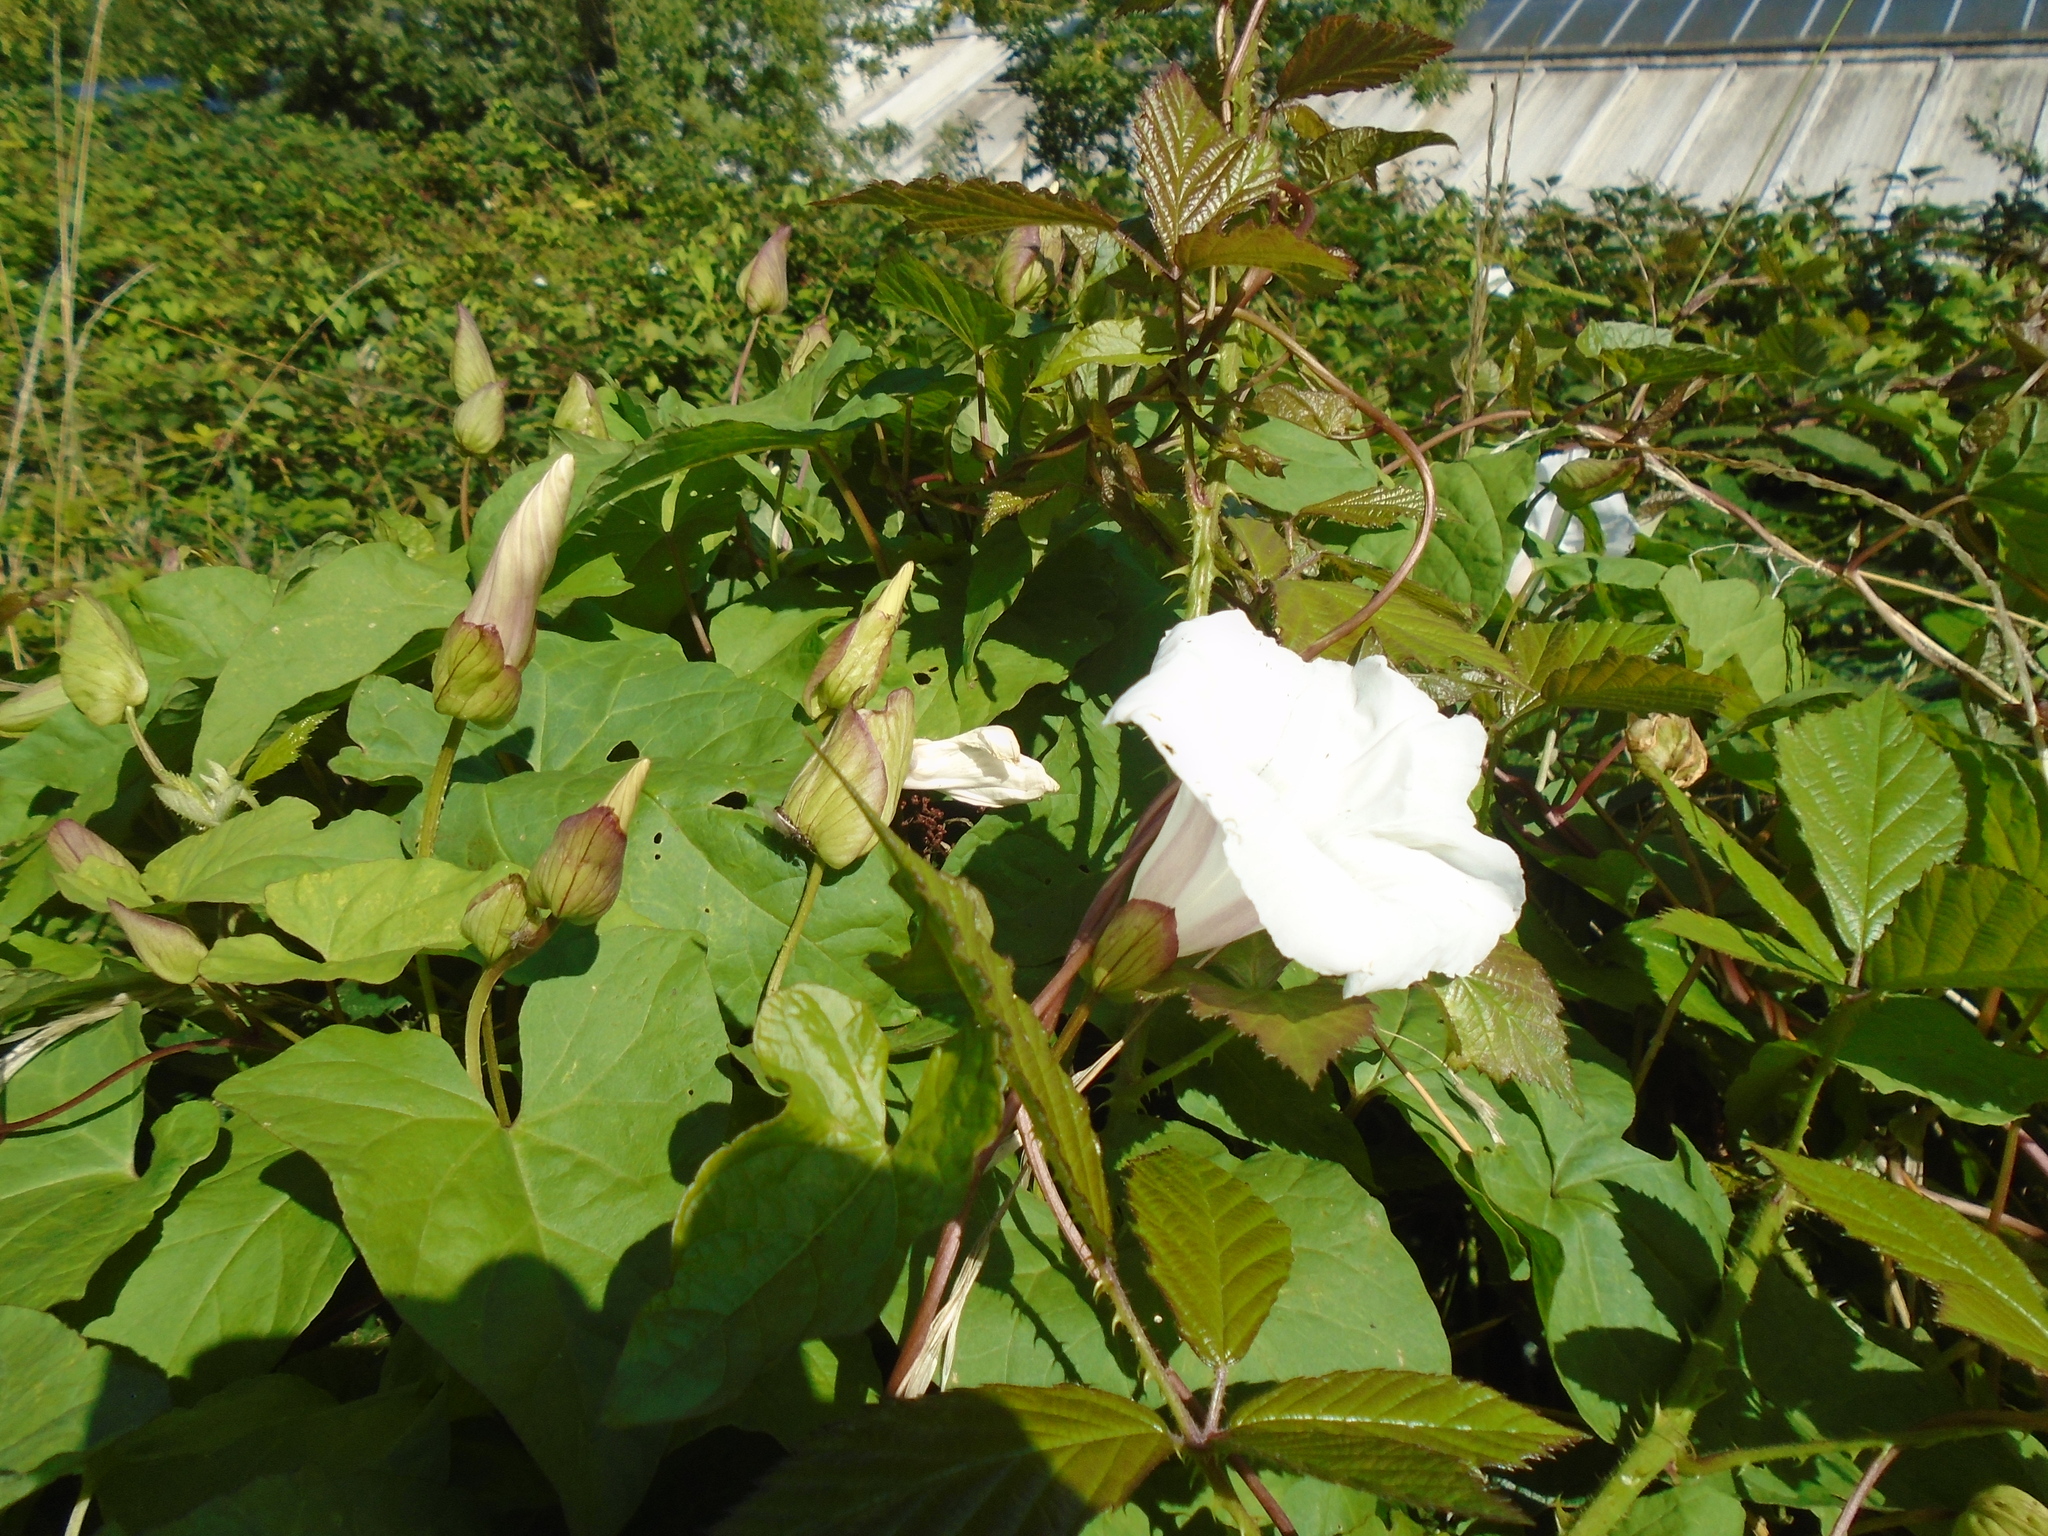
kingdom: Plantae
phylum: Tracheophyta
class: Magnoliopsida
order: Solanales
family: Convolvulaceae
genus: Calystegia
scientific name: Calystegia silvatica
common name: Large bindweed
